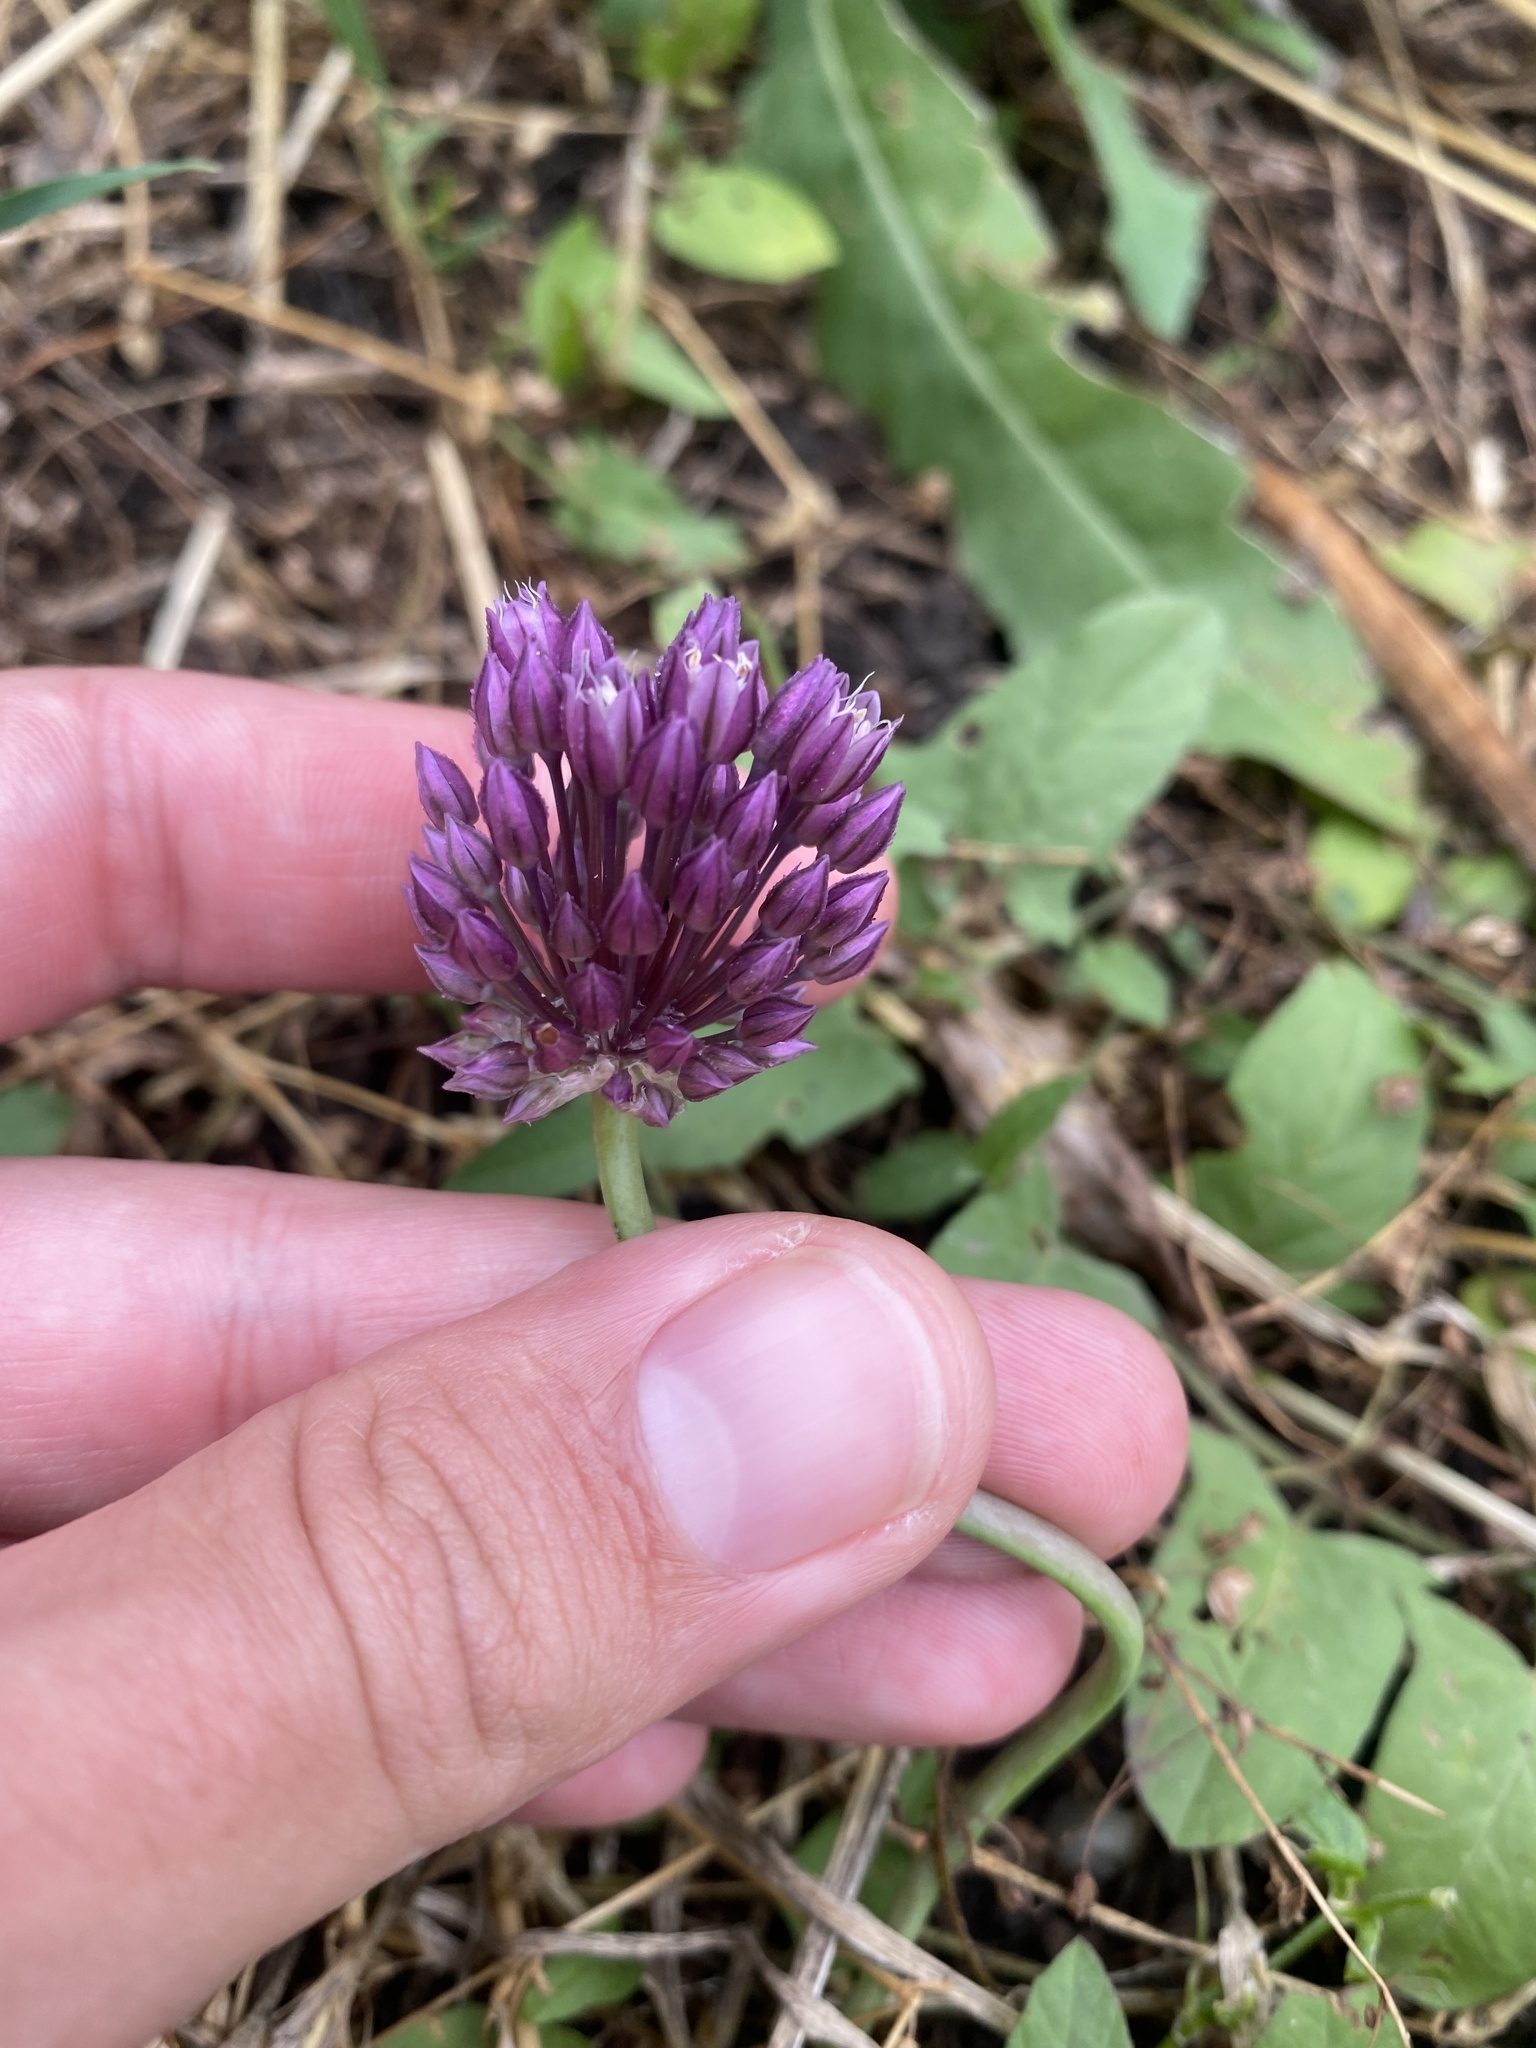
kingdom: Plantae
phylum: Tracheophyta
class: Liliopsida
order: Asparagales
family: Amaryllidaceae
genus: Allium
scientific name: Allium rotundum
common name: Sand leek
